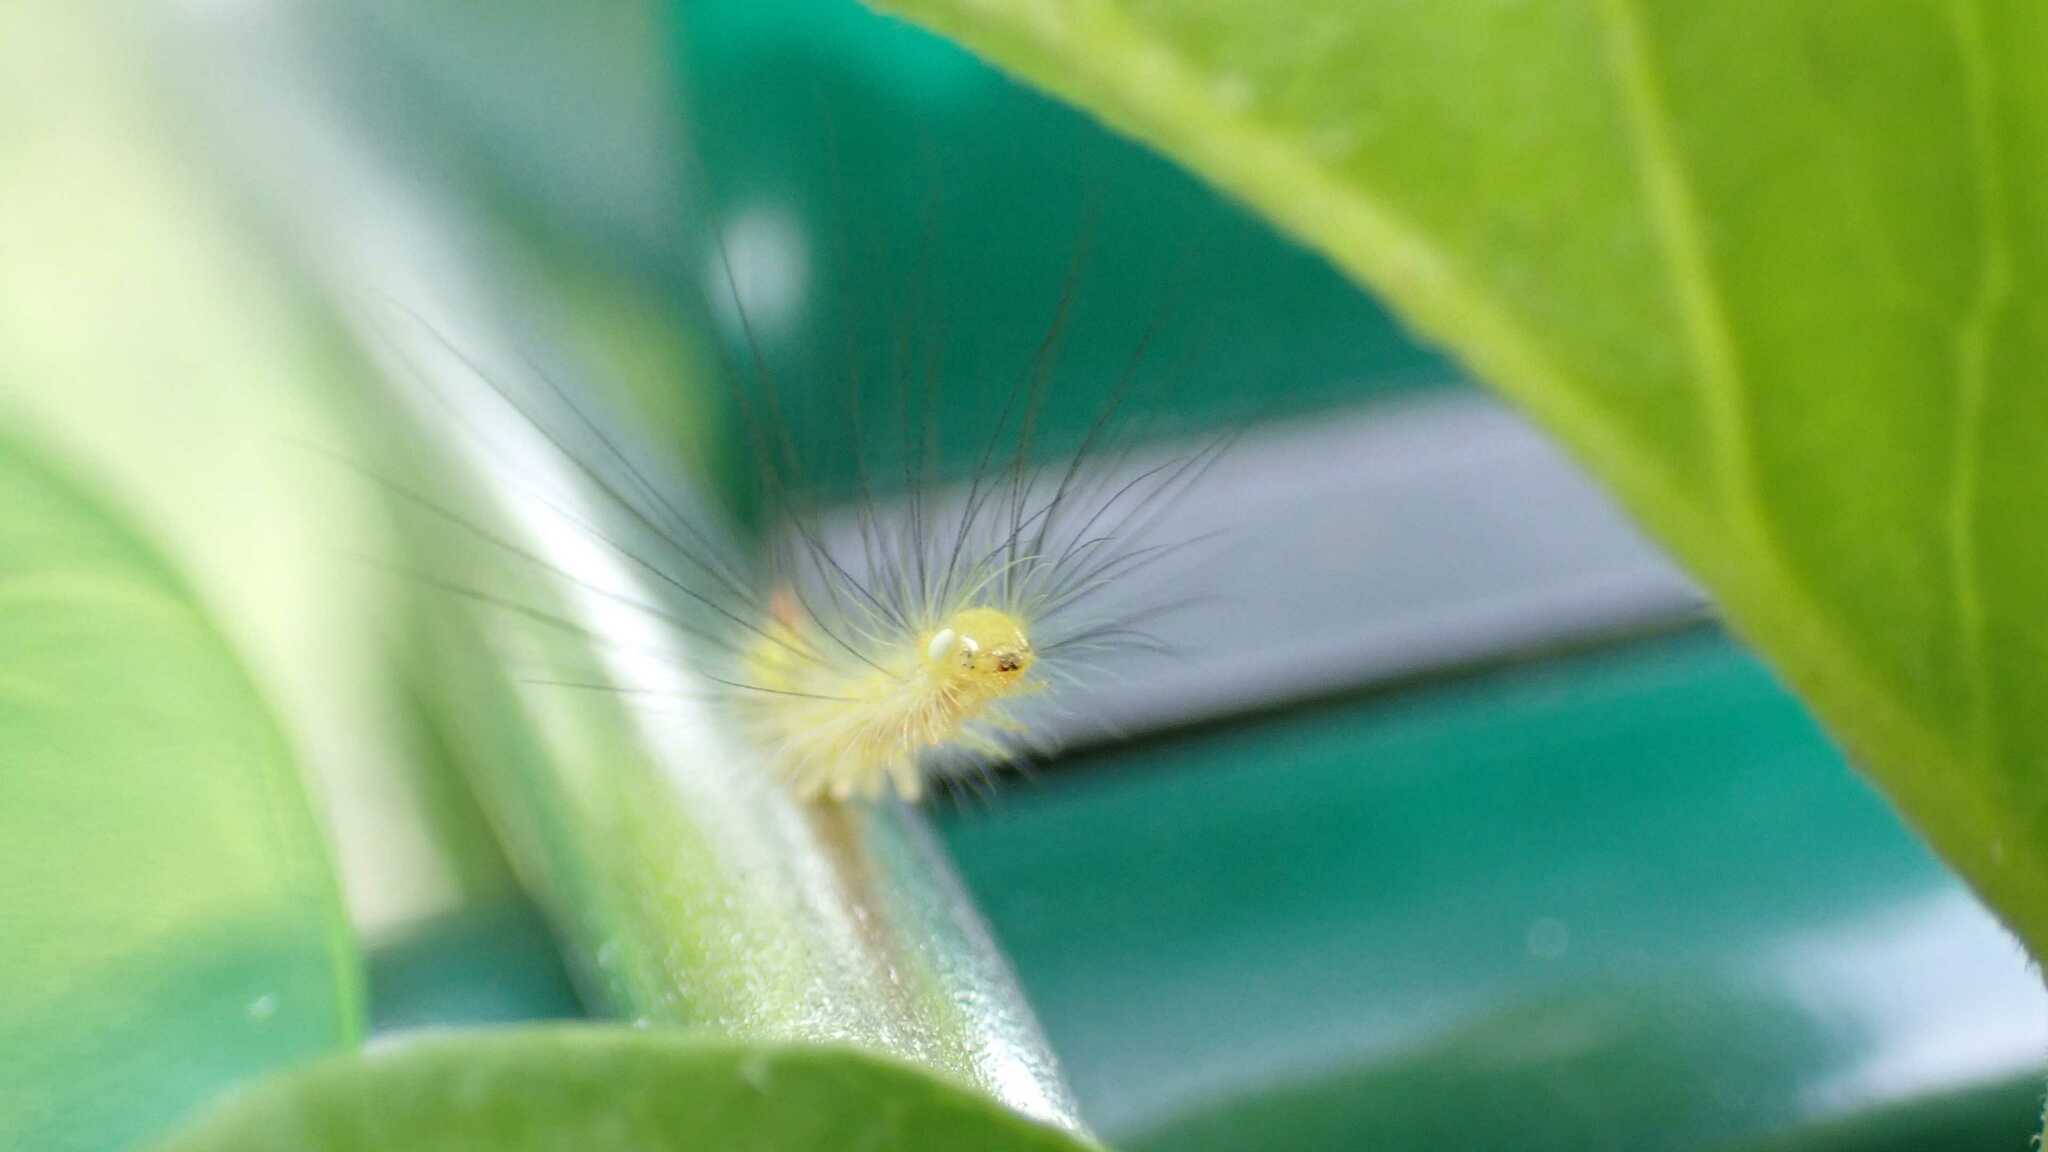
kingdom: Animalia
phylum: Arthropoda
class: Insecta
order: Lepidoptera
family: Erebidae
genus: Calliteara
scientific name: Calliteara pudibunda
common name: Pale tussock
